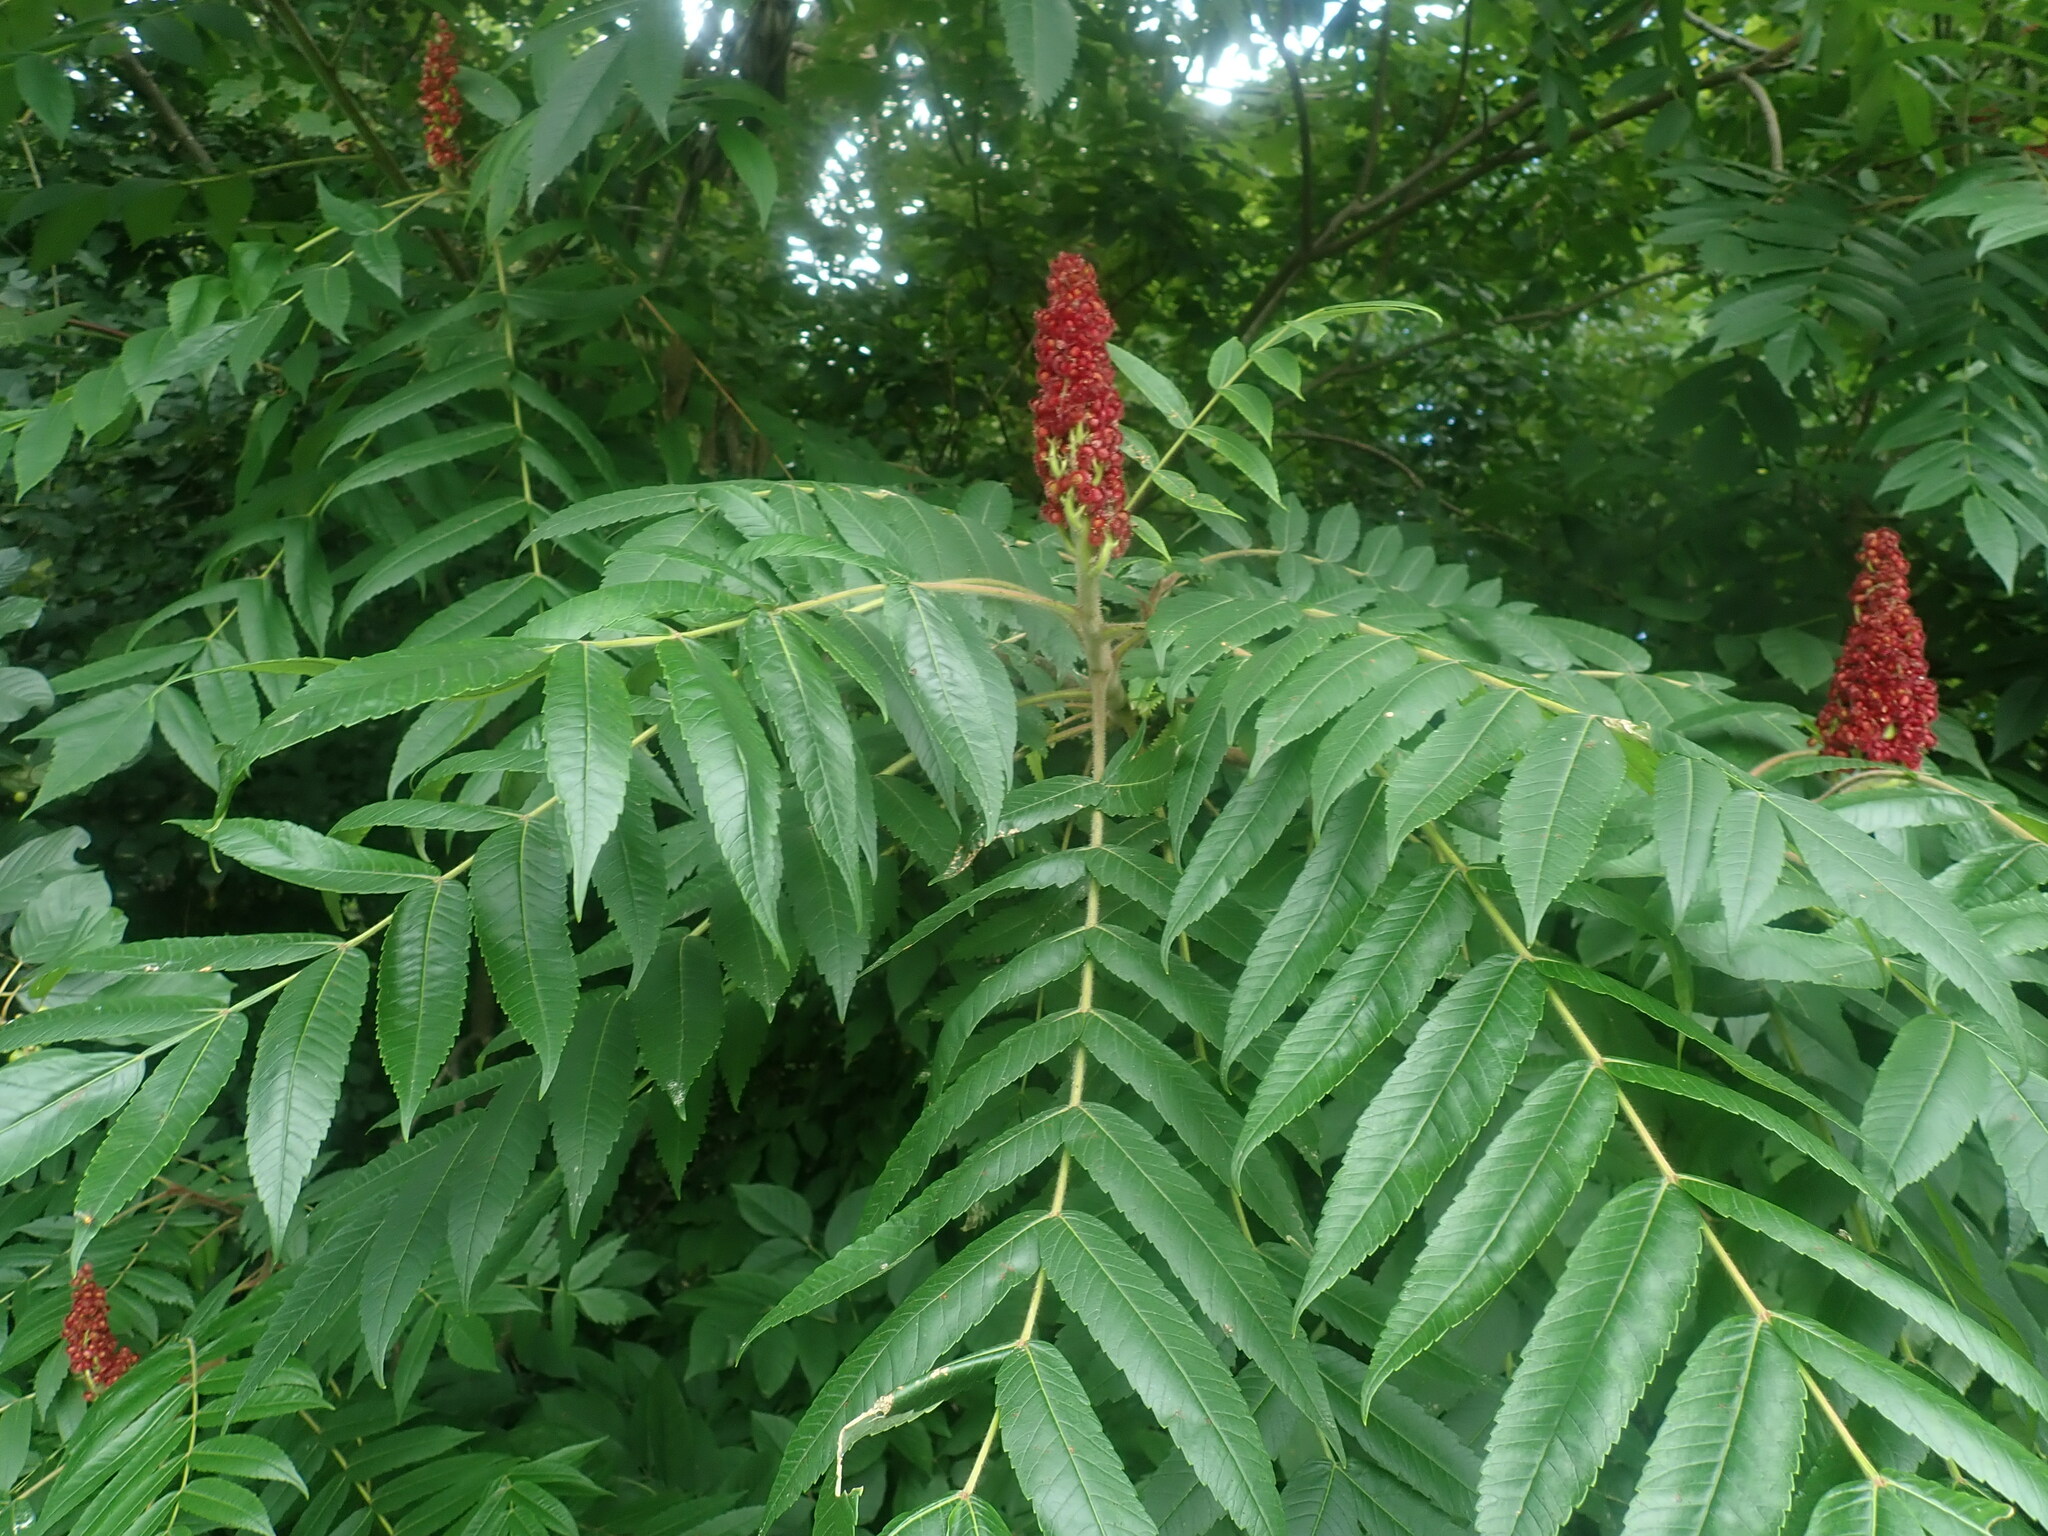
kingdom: Plantae
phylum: Tracheophyta
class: Magnoliopsida
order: Sapindales
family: Anacardiaceae
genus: Rhus
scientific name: Rhus typhina
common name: Staghorn sumac
